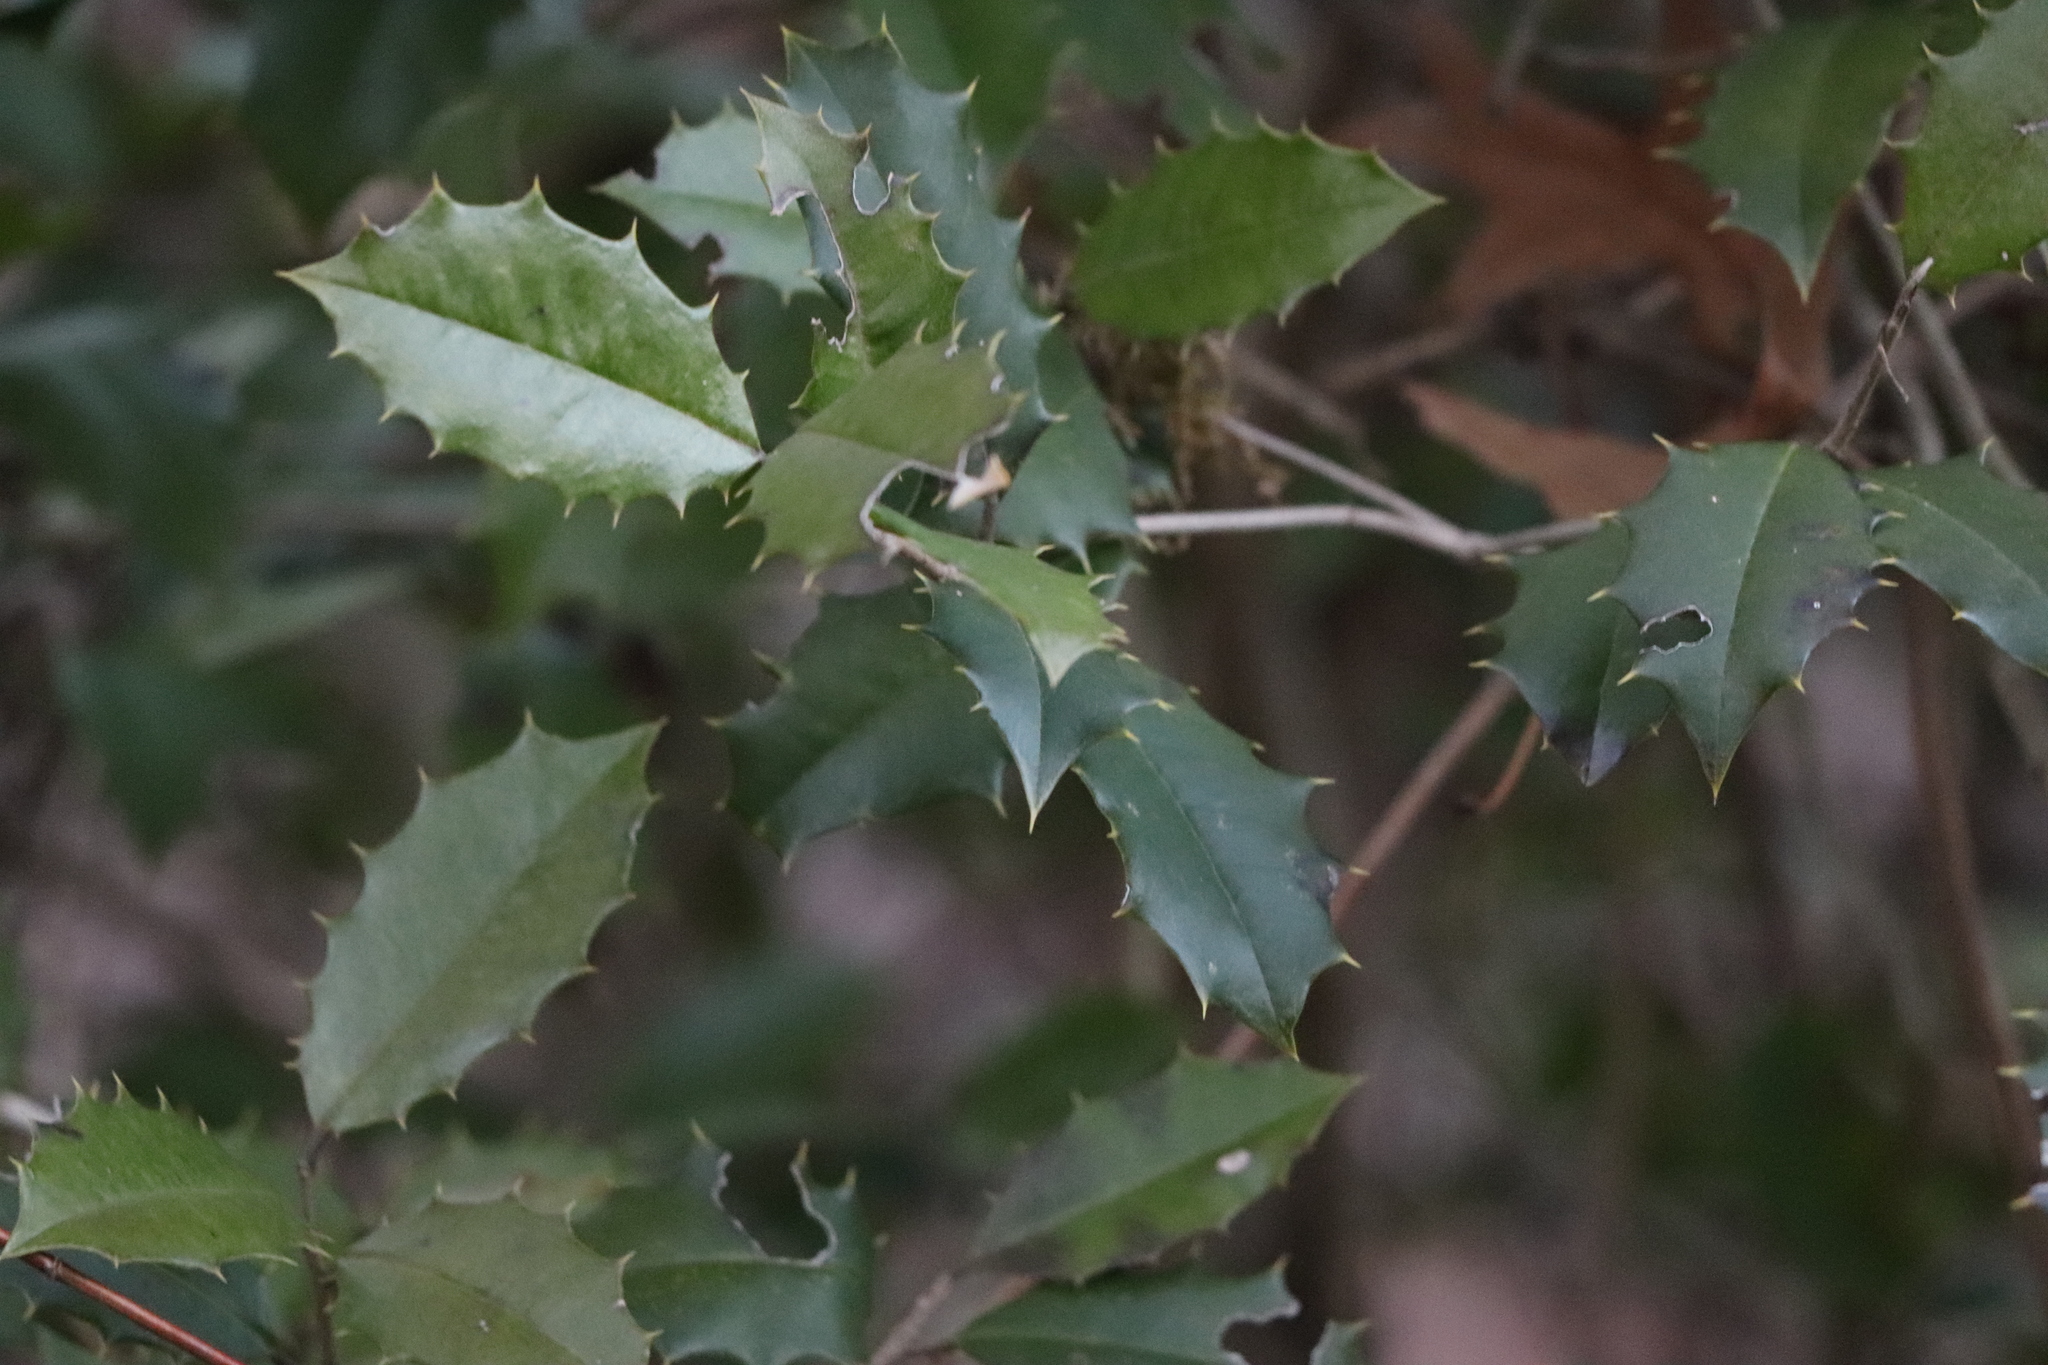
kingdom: Plantae
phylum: Tracheophyta
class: Magnoliopsida
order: Aquifoliales
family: Aquifoliaceae
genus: Ilex
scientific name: Ilex opaca
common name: American holly
